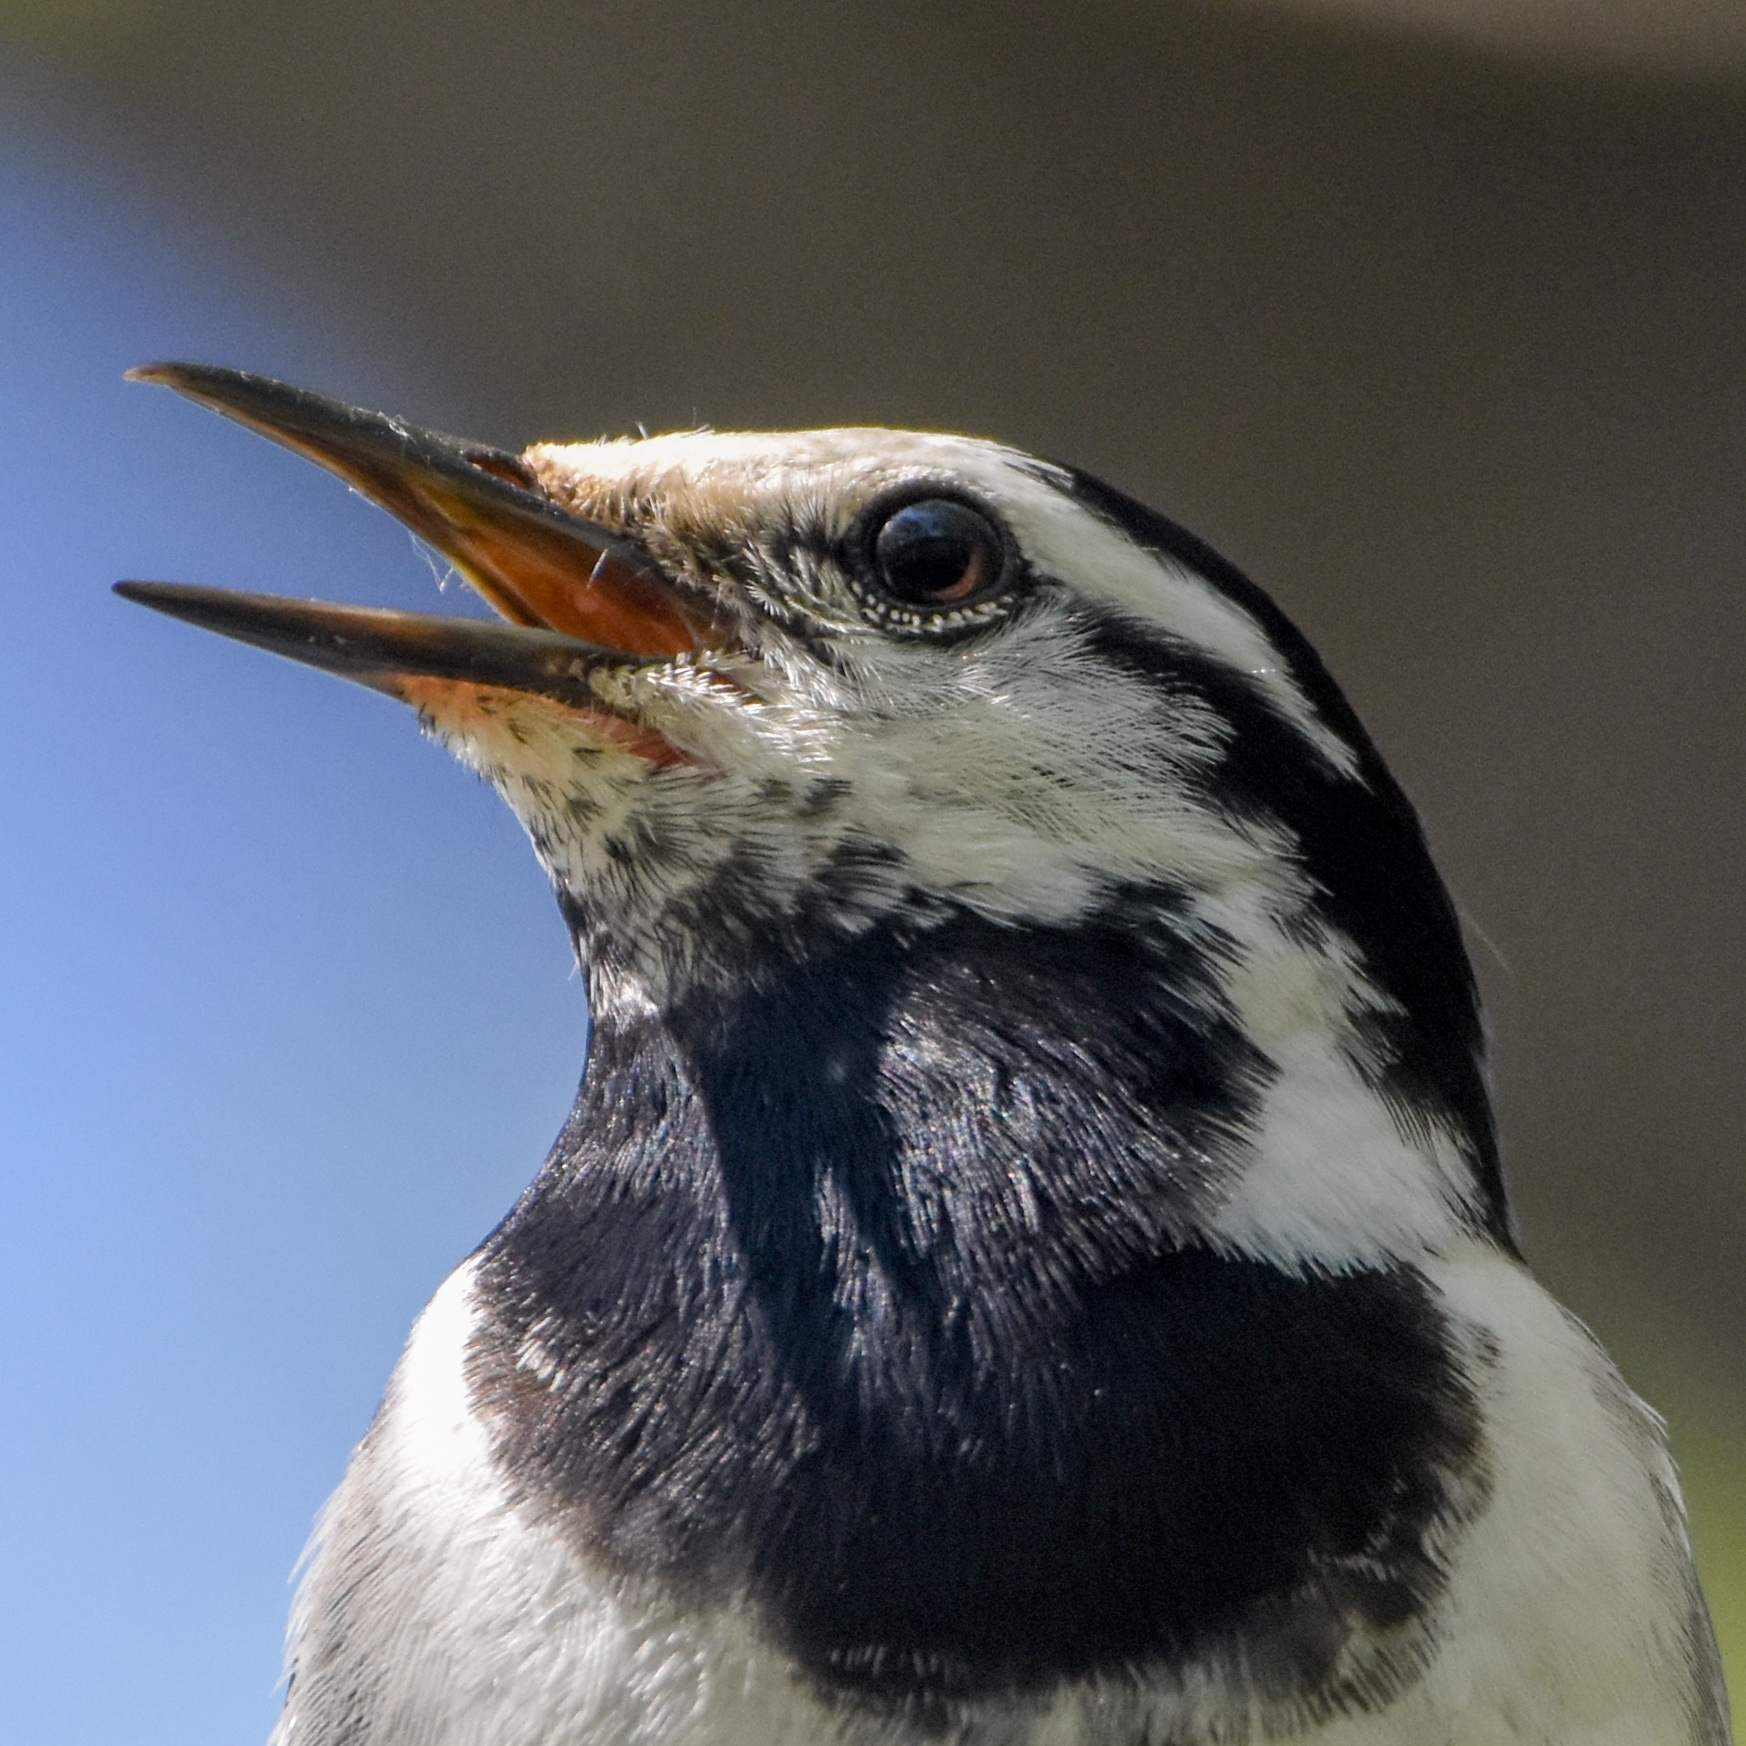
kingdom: Animalia
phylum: Chordata
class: Aves
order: Passeriformes
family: Motacillidae
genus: Motacilla
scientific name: Motacilla alba
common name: White wagtail
